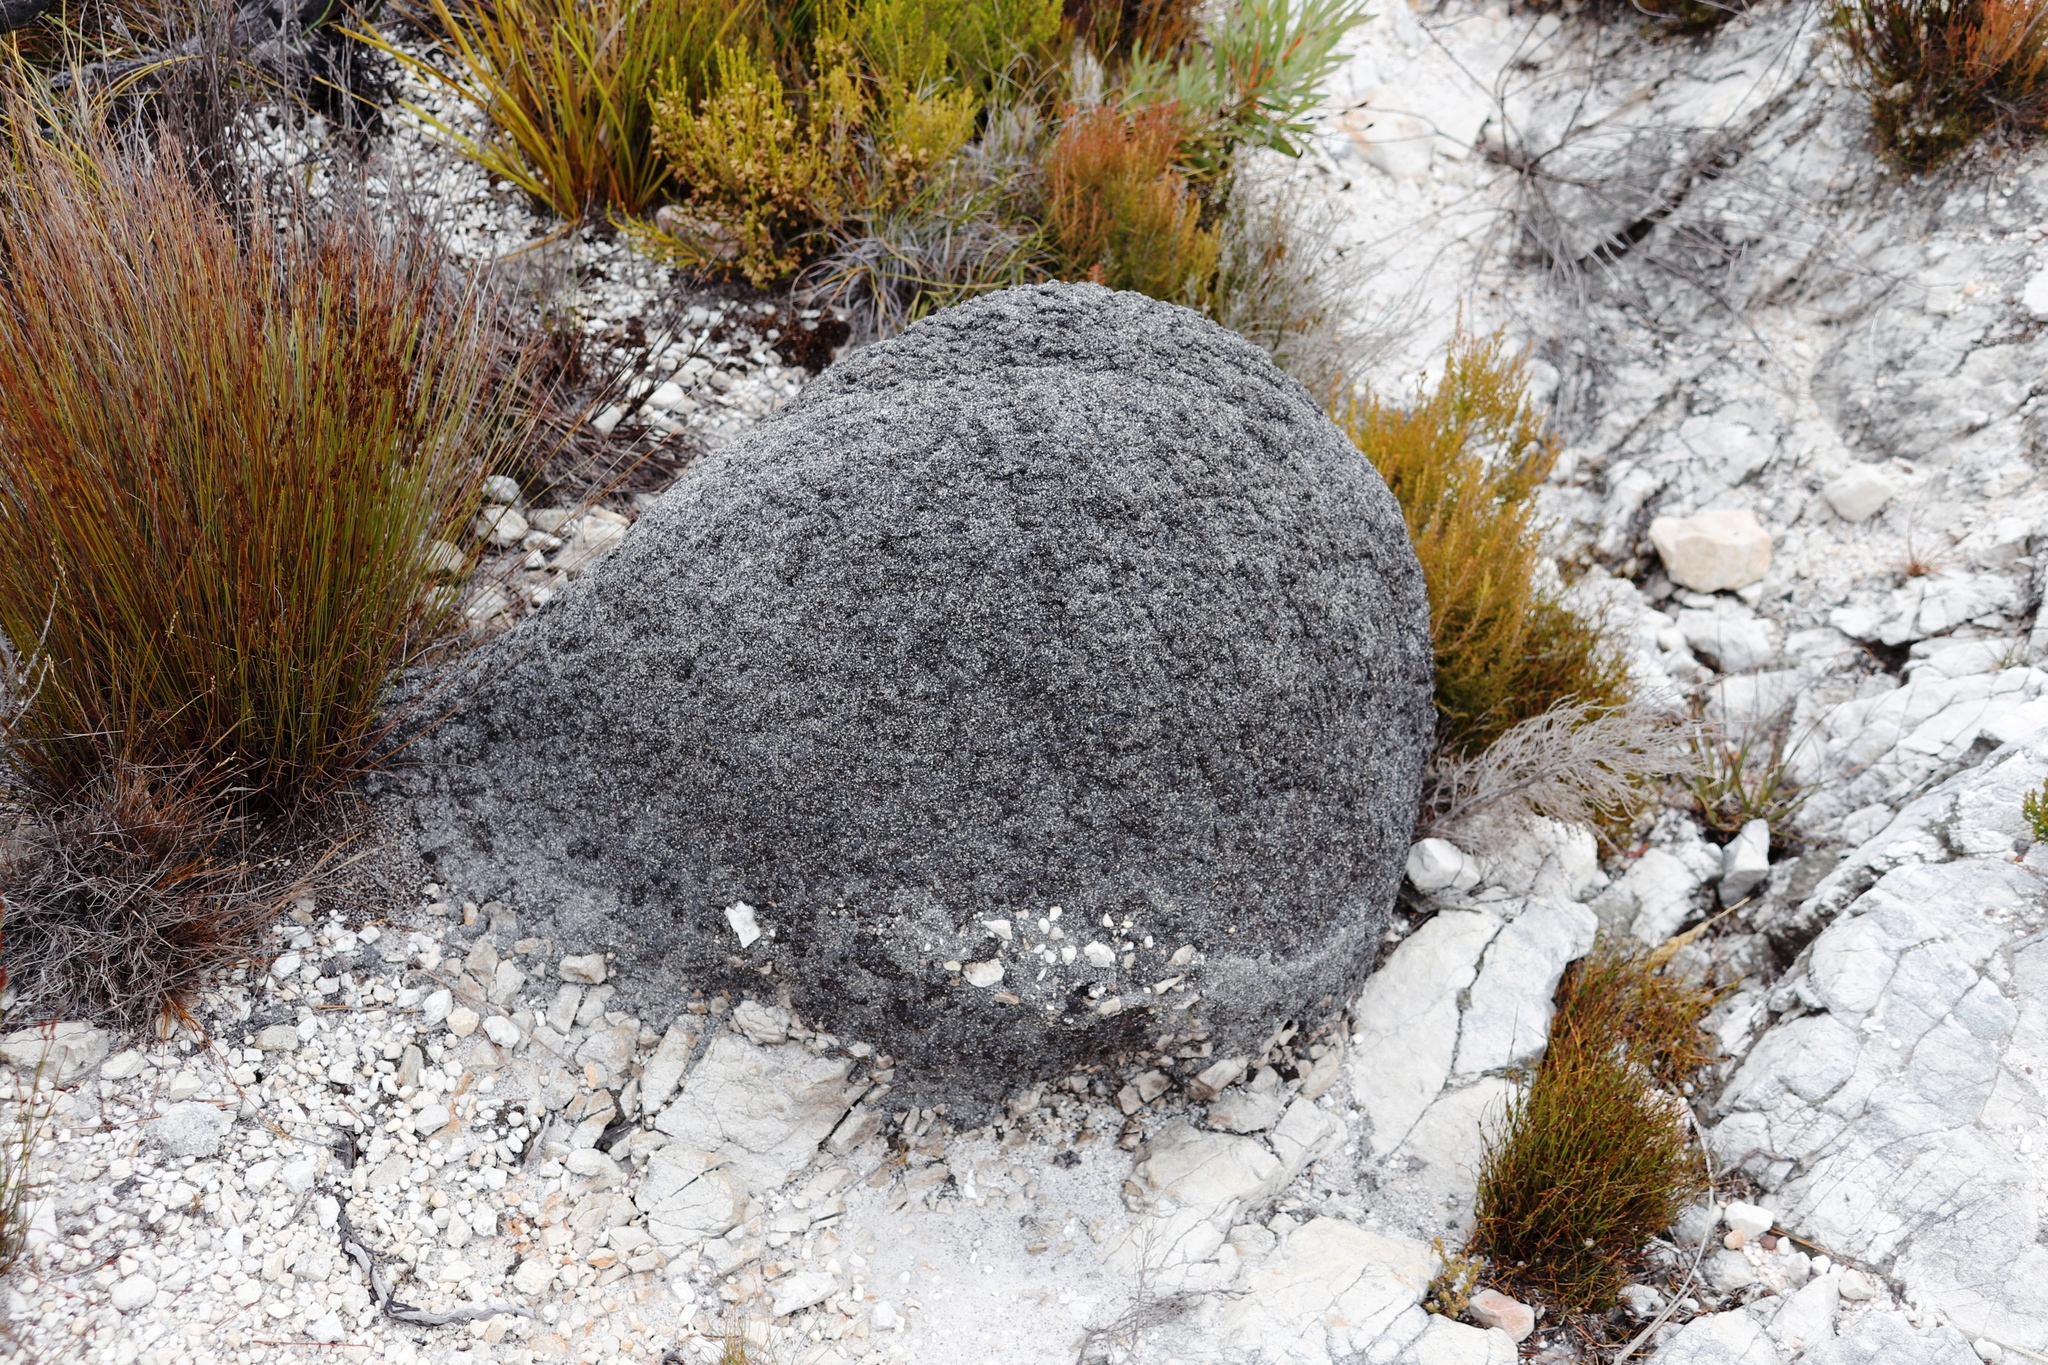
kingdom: Animalia
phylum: Arthropoda
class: Insecta
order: Blattodea
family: Termitidae
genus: Amitermes
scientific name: Amitermes hastatus
